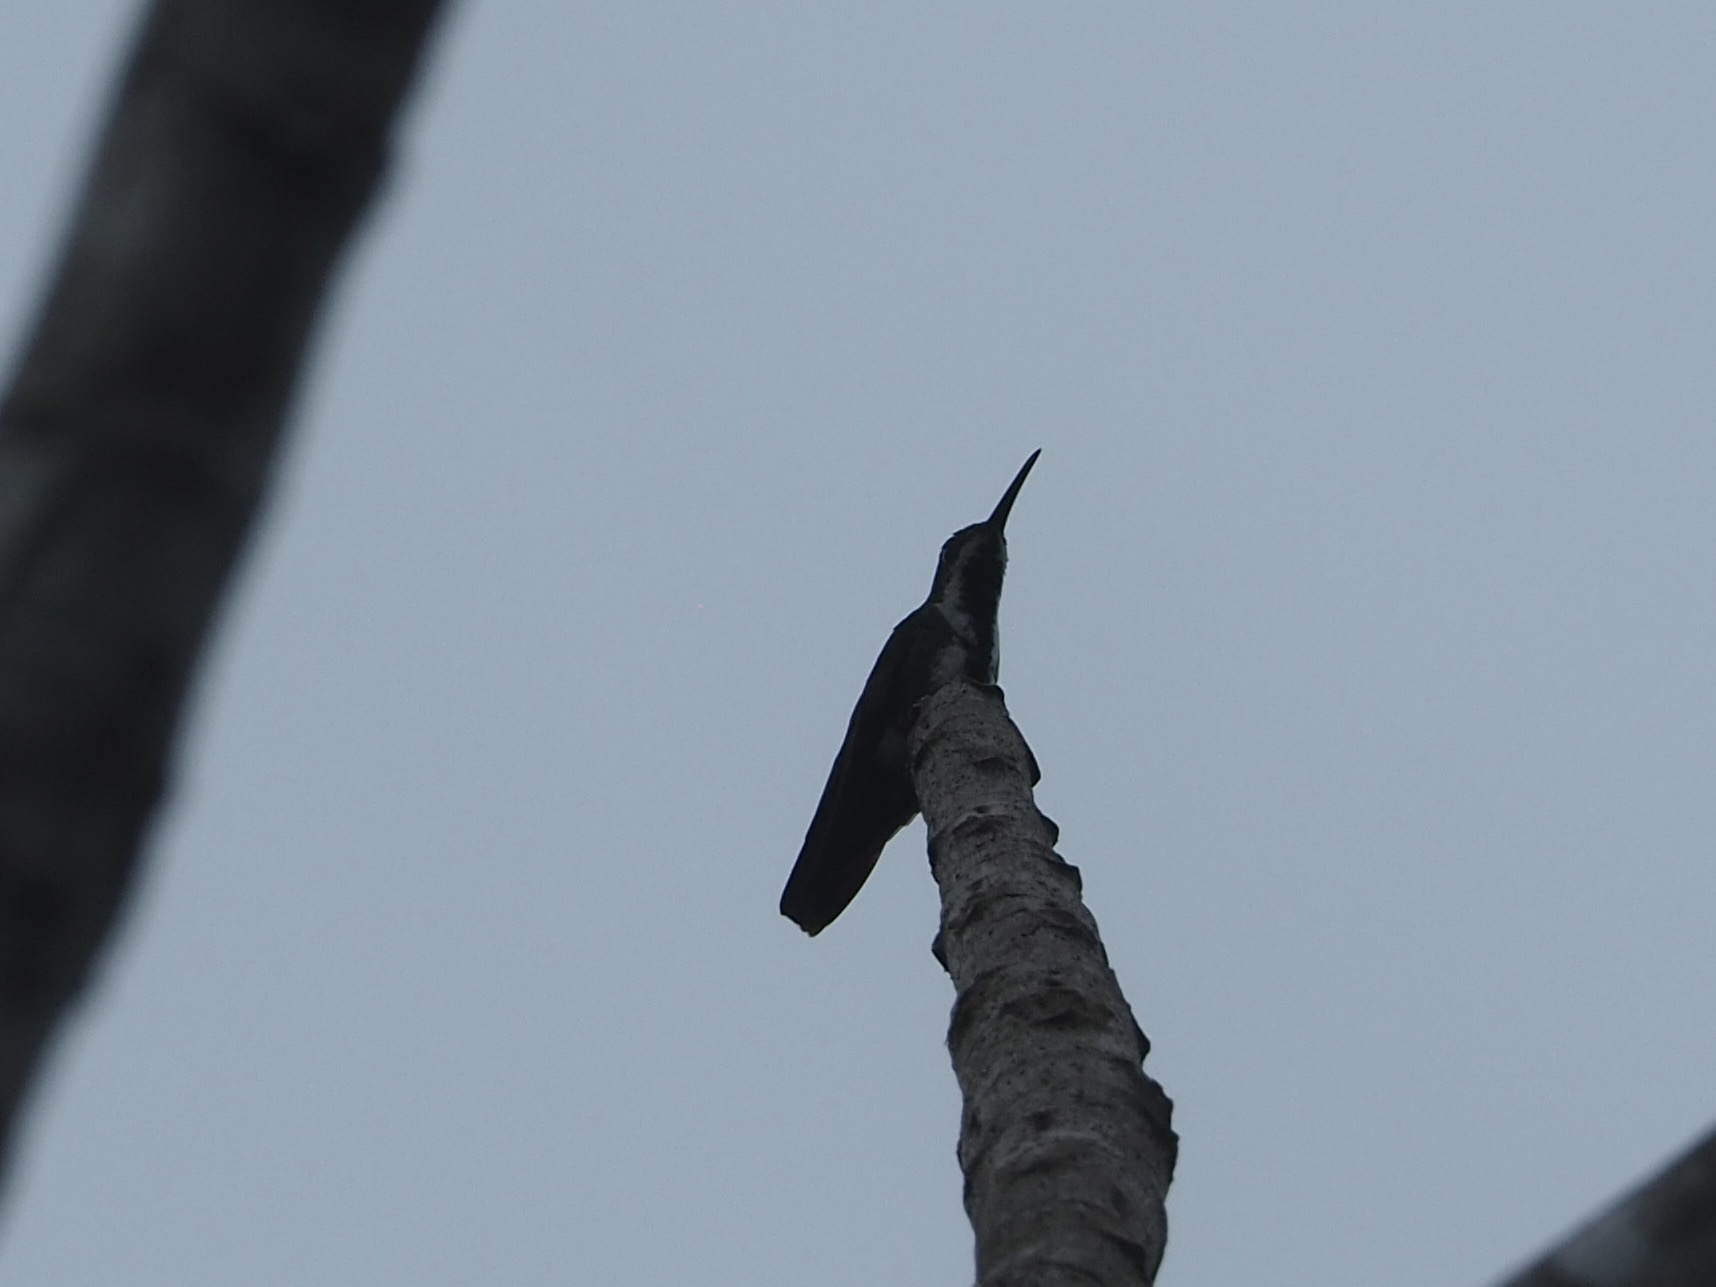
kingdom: Animalia
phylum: Chordata
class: Aves
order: Apodiformes
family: Trochilidae
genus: Anthracothorax
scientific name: Anthracothorax nigricollis
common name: Black-throated mango
